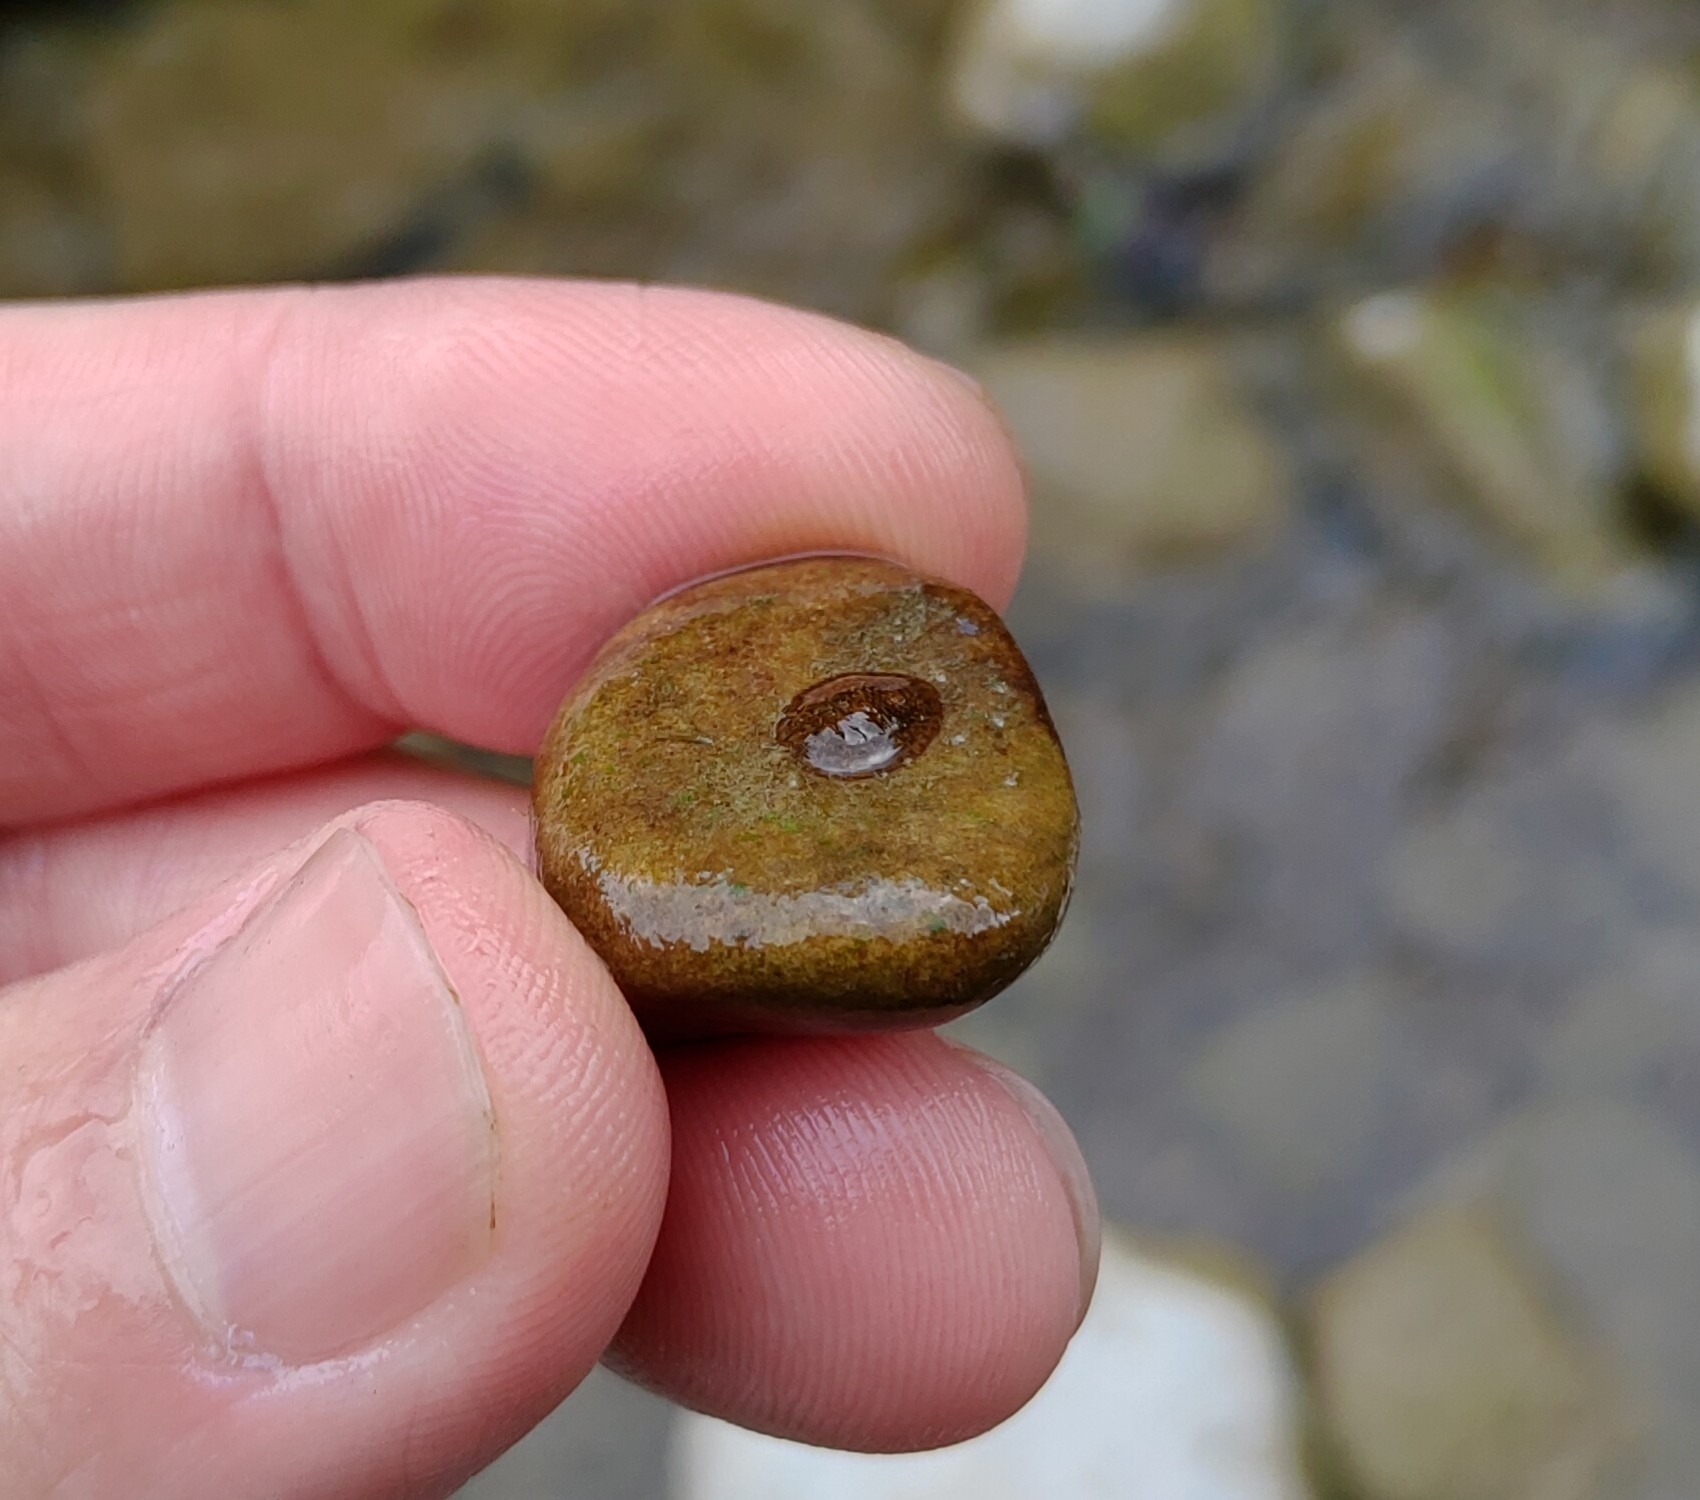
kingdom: Animalia
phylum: Arthropoda
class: Insecta
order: Coleoptera
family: Psephenidae
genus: Psephenus
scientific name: Psephenus herricki
